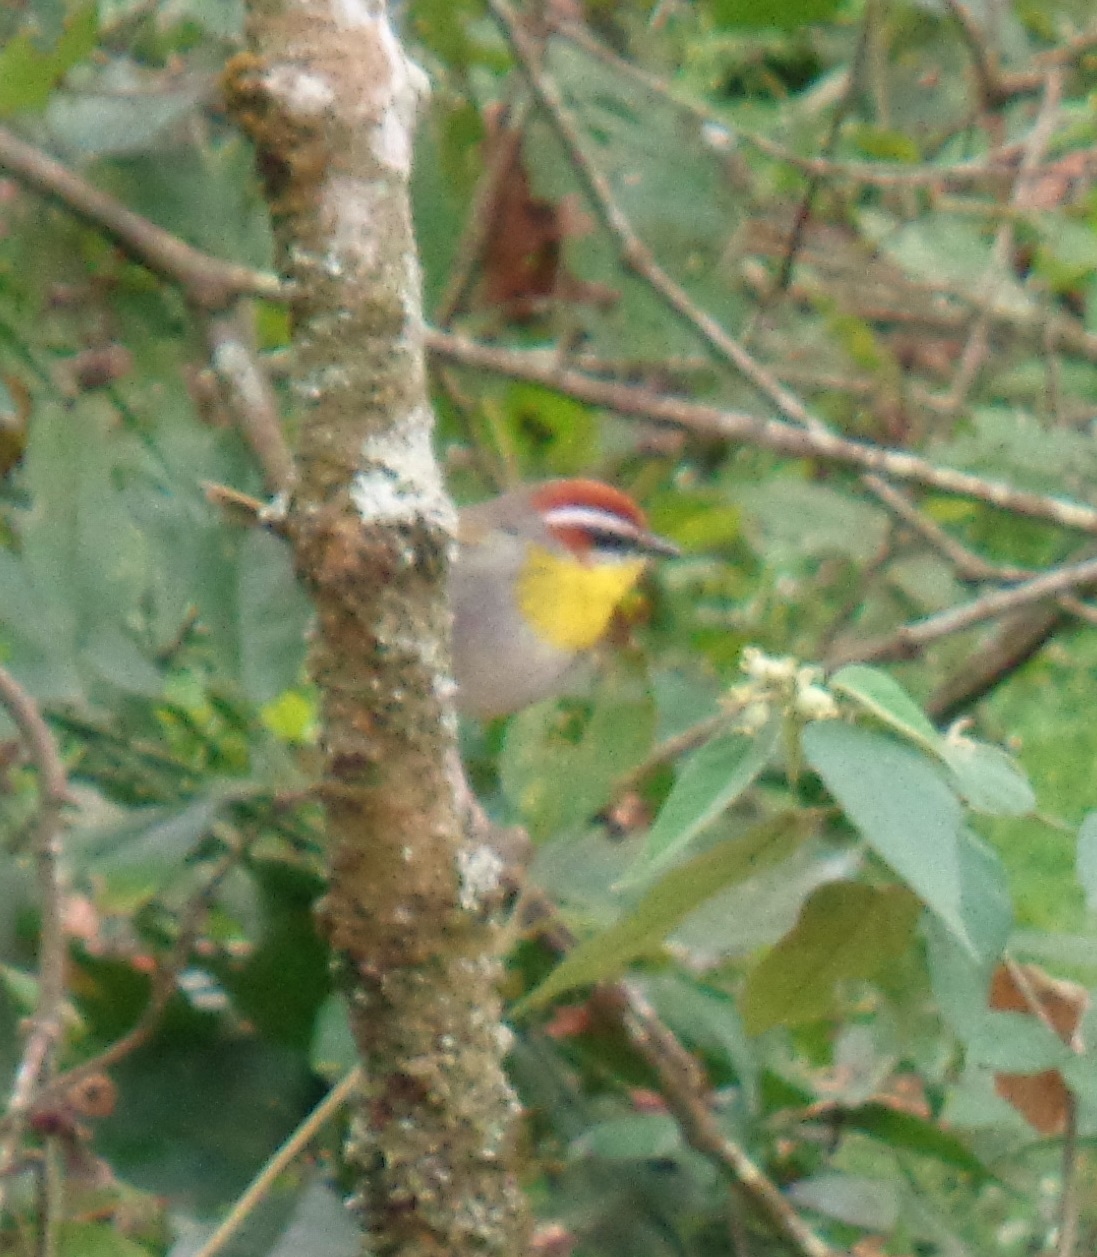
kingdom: Animalia
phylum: Chordata
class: Aves
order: Passeriformes
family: Parulidae
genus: Basileuterus
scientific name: Basileuterus rufifrons
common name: Rufous-capped warbler
